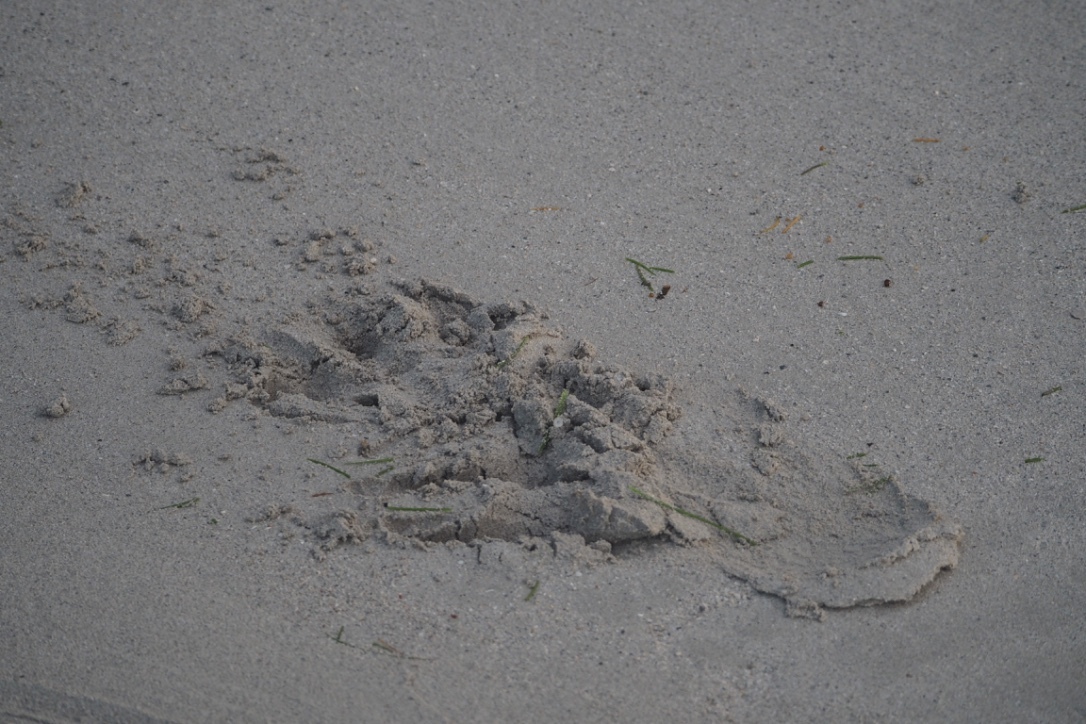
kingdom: Animalia
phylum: Chordata
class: Crocodylia
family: Crocodylidae
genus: Crocodylus
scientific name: Crocodylus porosus
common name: Saltwater crocodile
